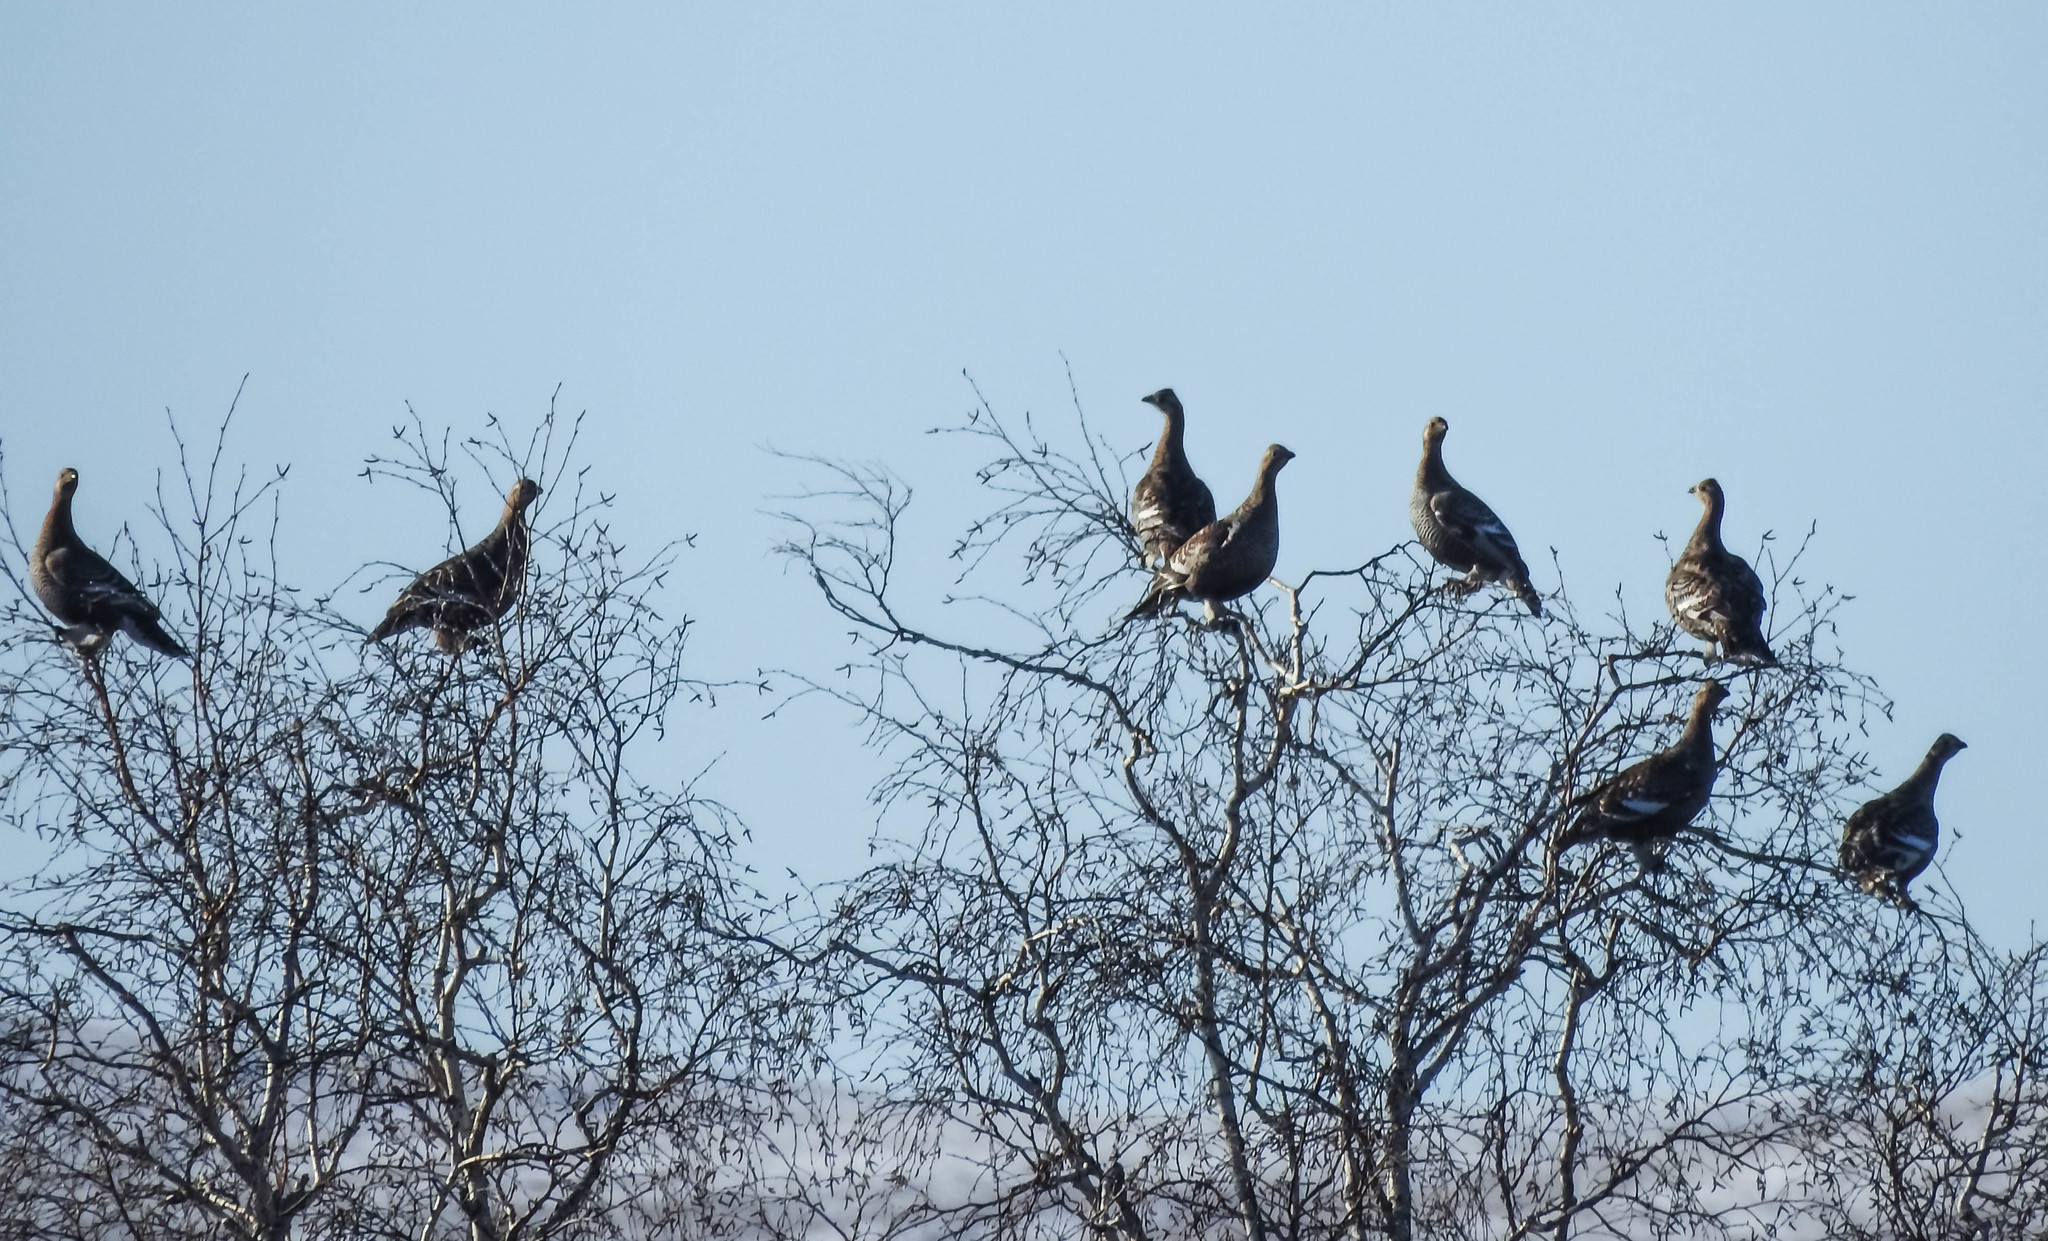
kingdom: Animalia
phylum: Chordata
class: Aves
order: Galliformes
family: Phasianidae
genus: Lyrurus
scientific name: Lyrurus tetrix
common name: Black grouse
